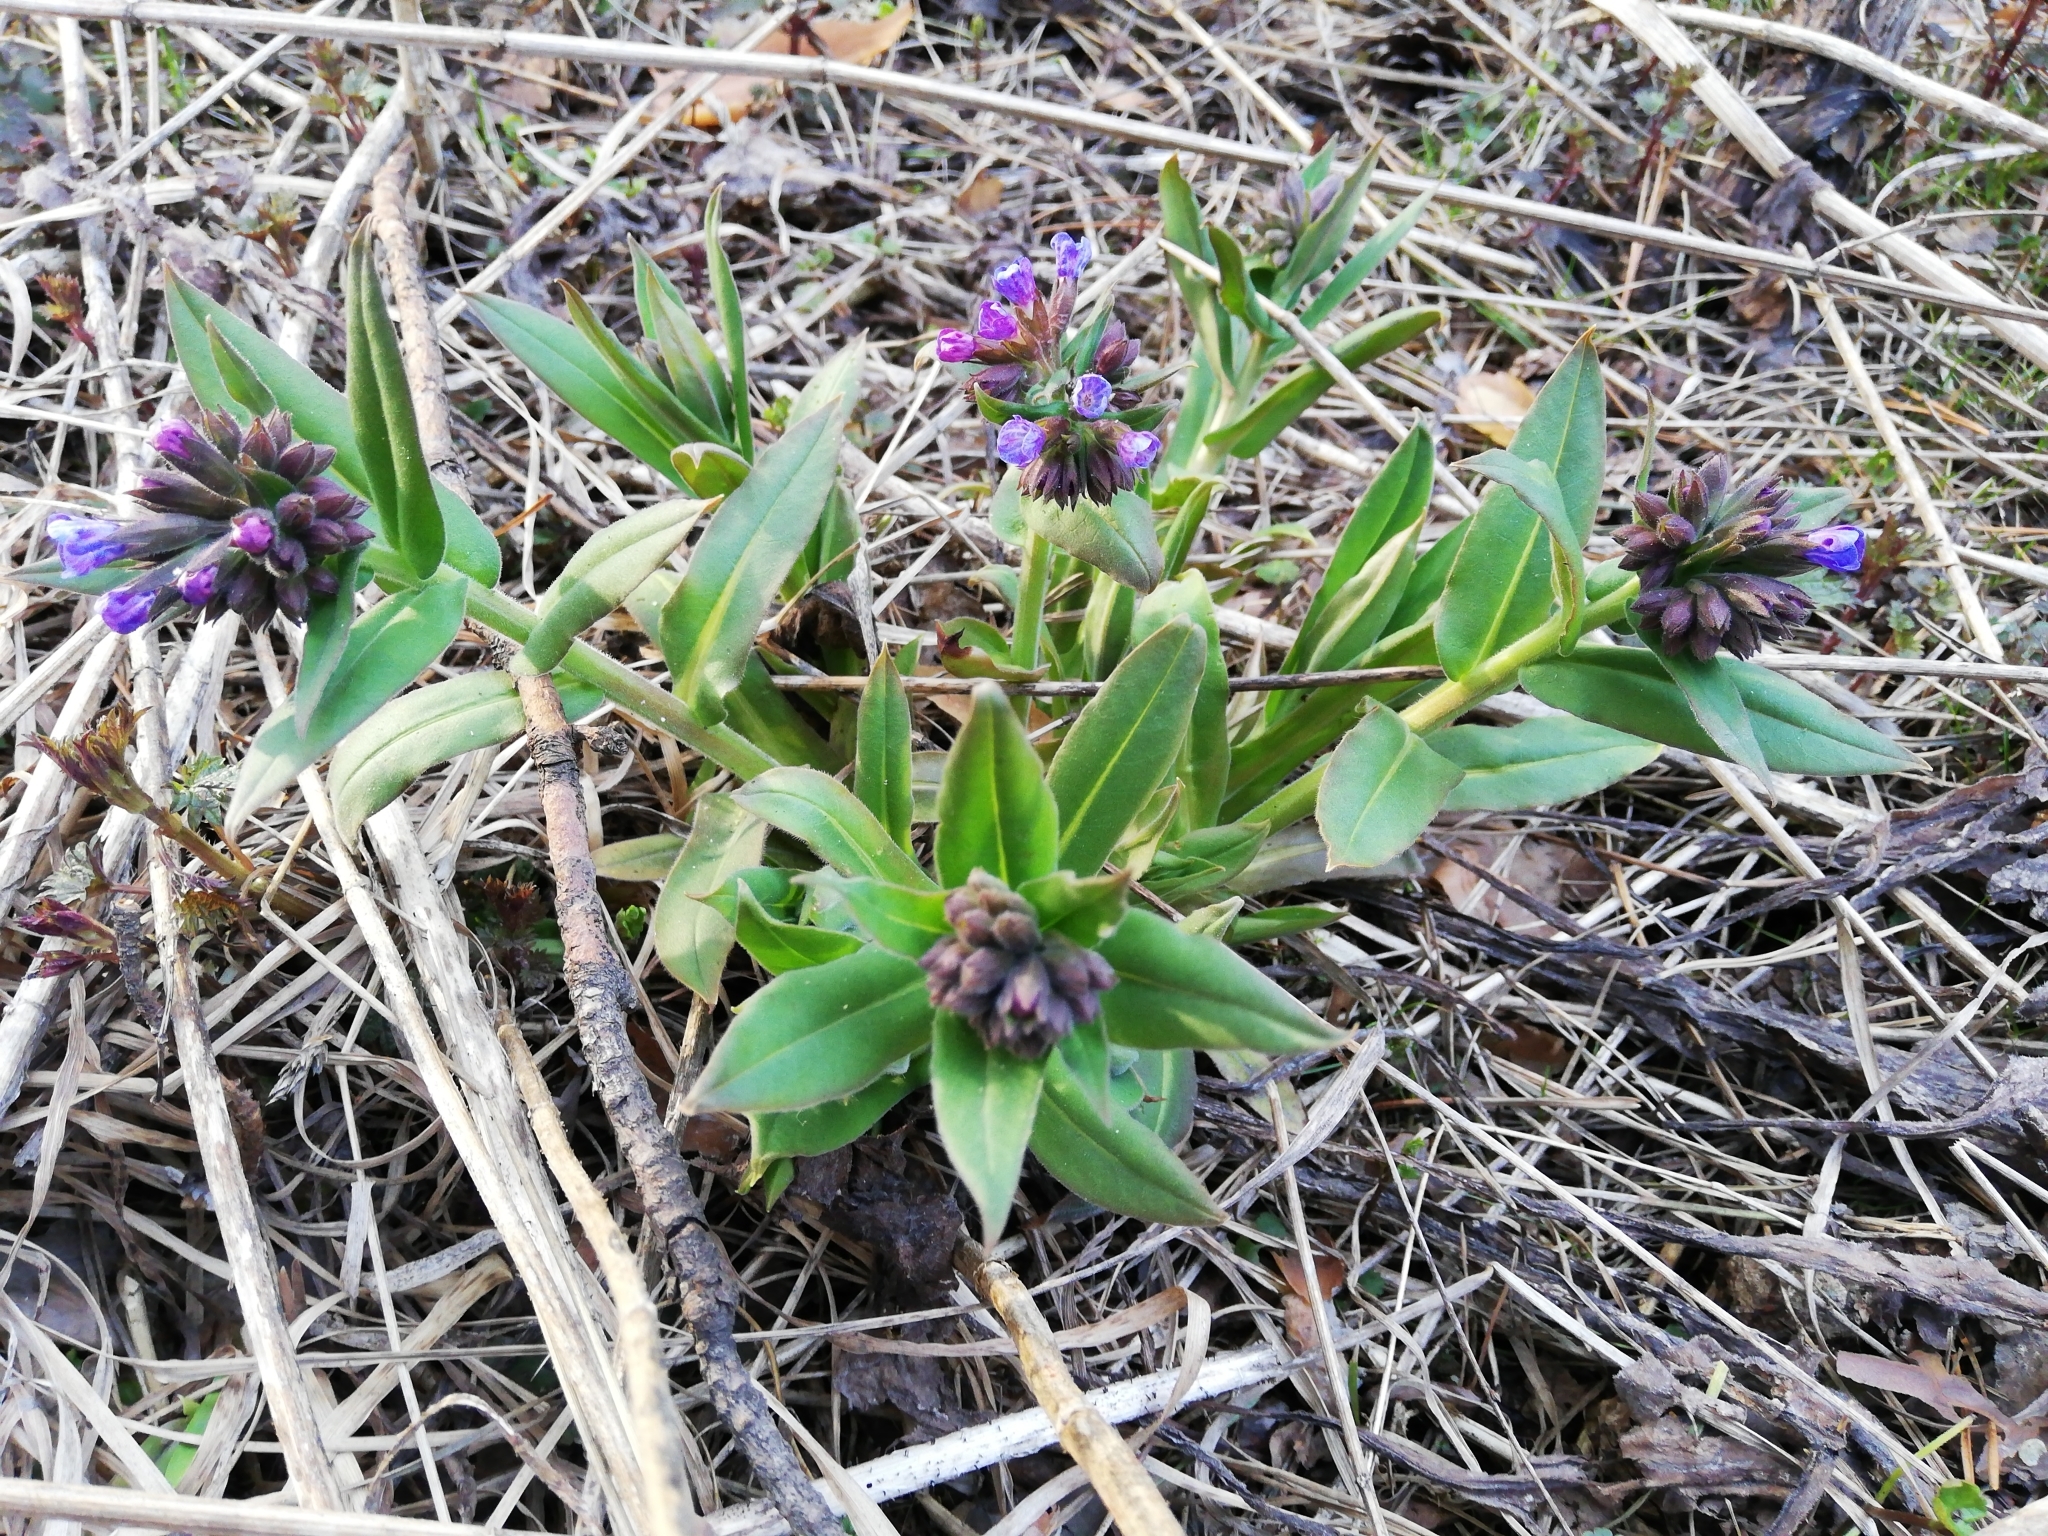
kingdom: Plantae
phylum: Tracheophyta
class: Magnoliopsida
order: Boraginales
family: Boraginaceae
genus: Pulmonaria
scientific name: Pulmonaria mollis
